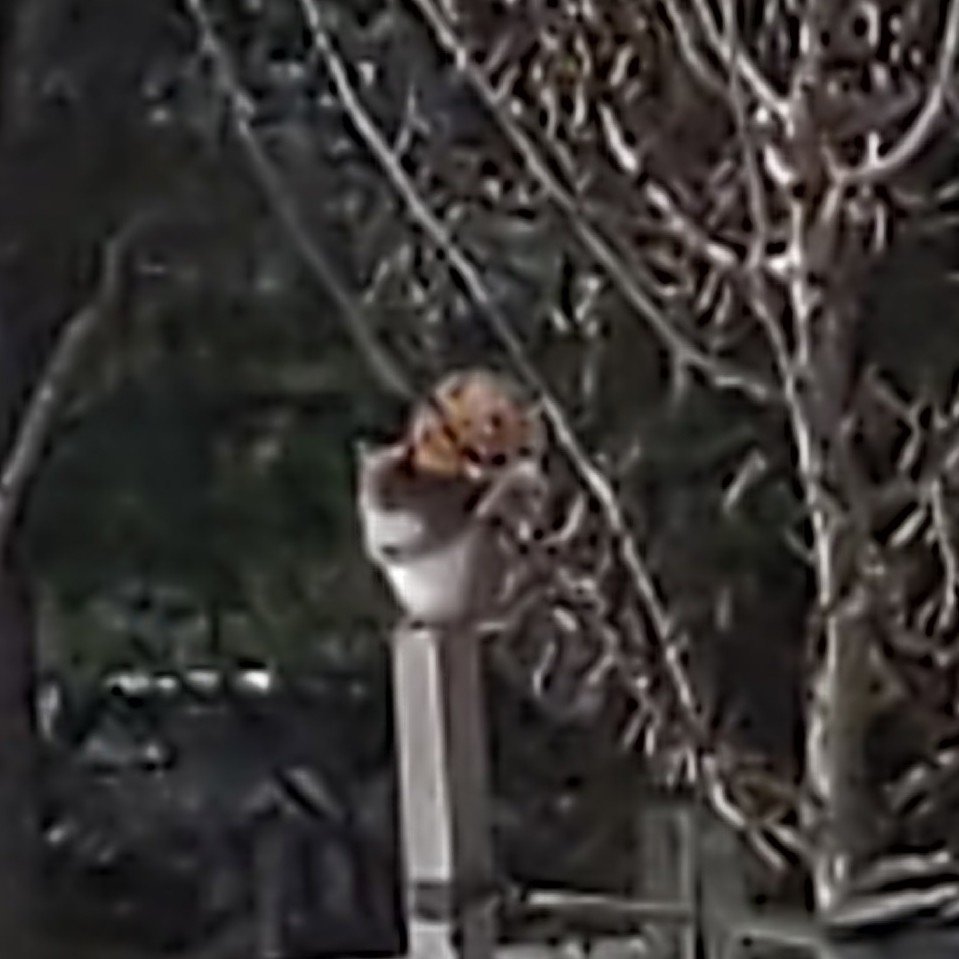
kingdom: Animalia
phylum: Chordata
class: Mammalia
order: Rodentia
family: Sciuridae
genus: Sciurus
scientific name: Sciurus carolinensis
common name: Eastern gray squirrel
